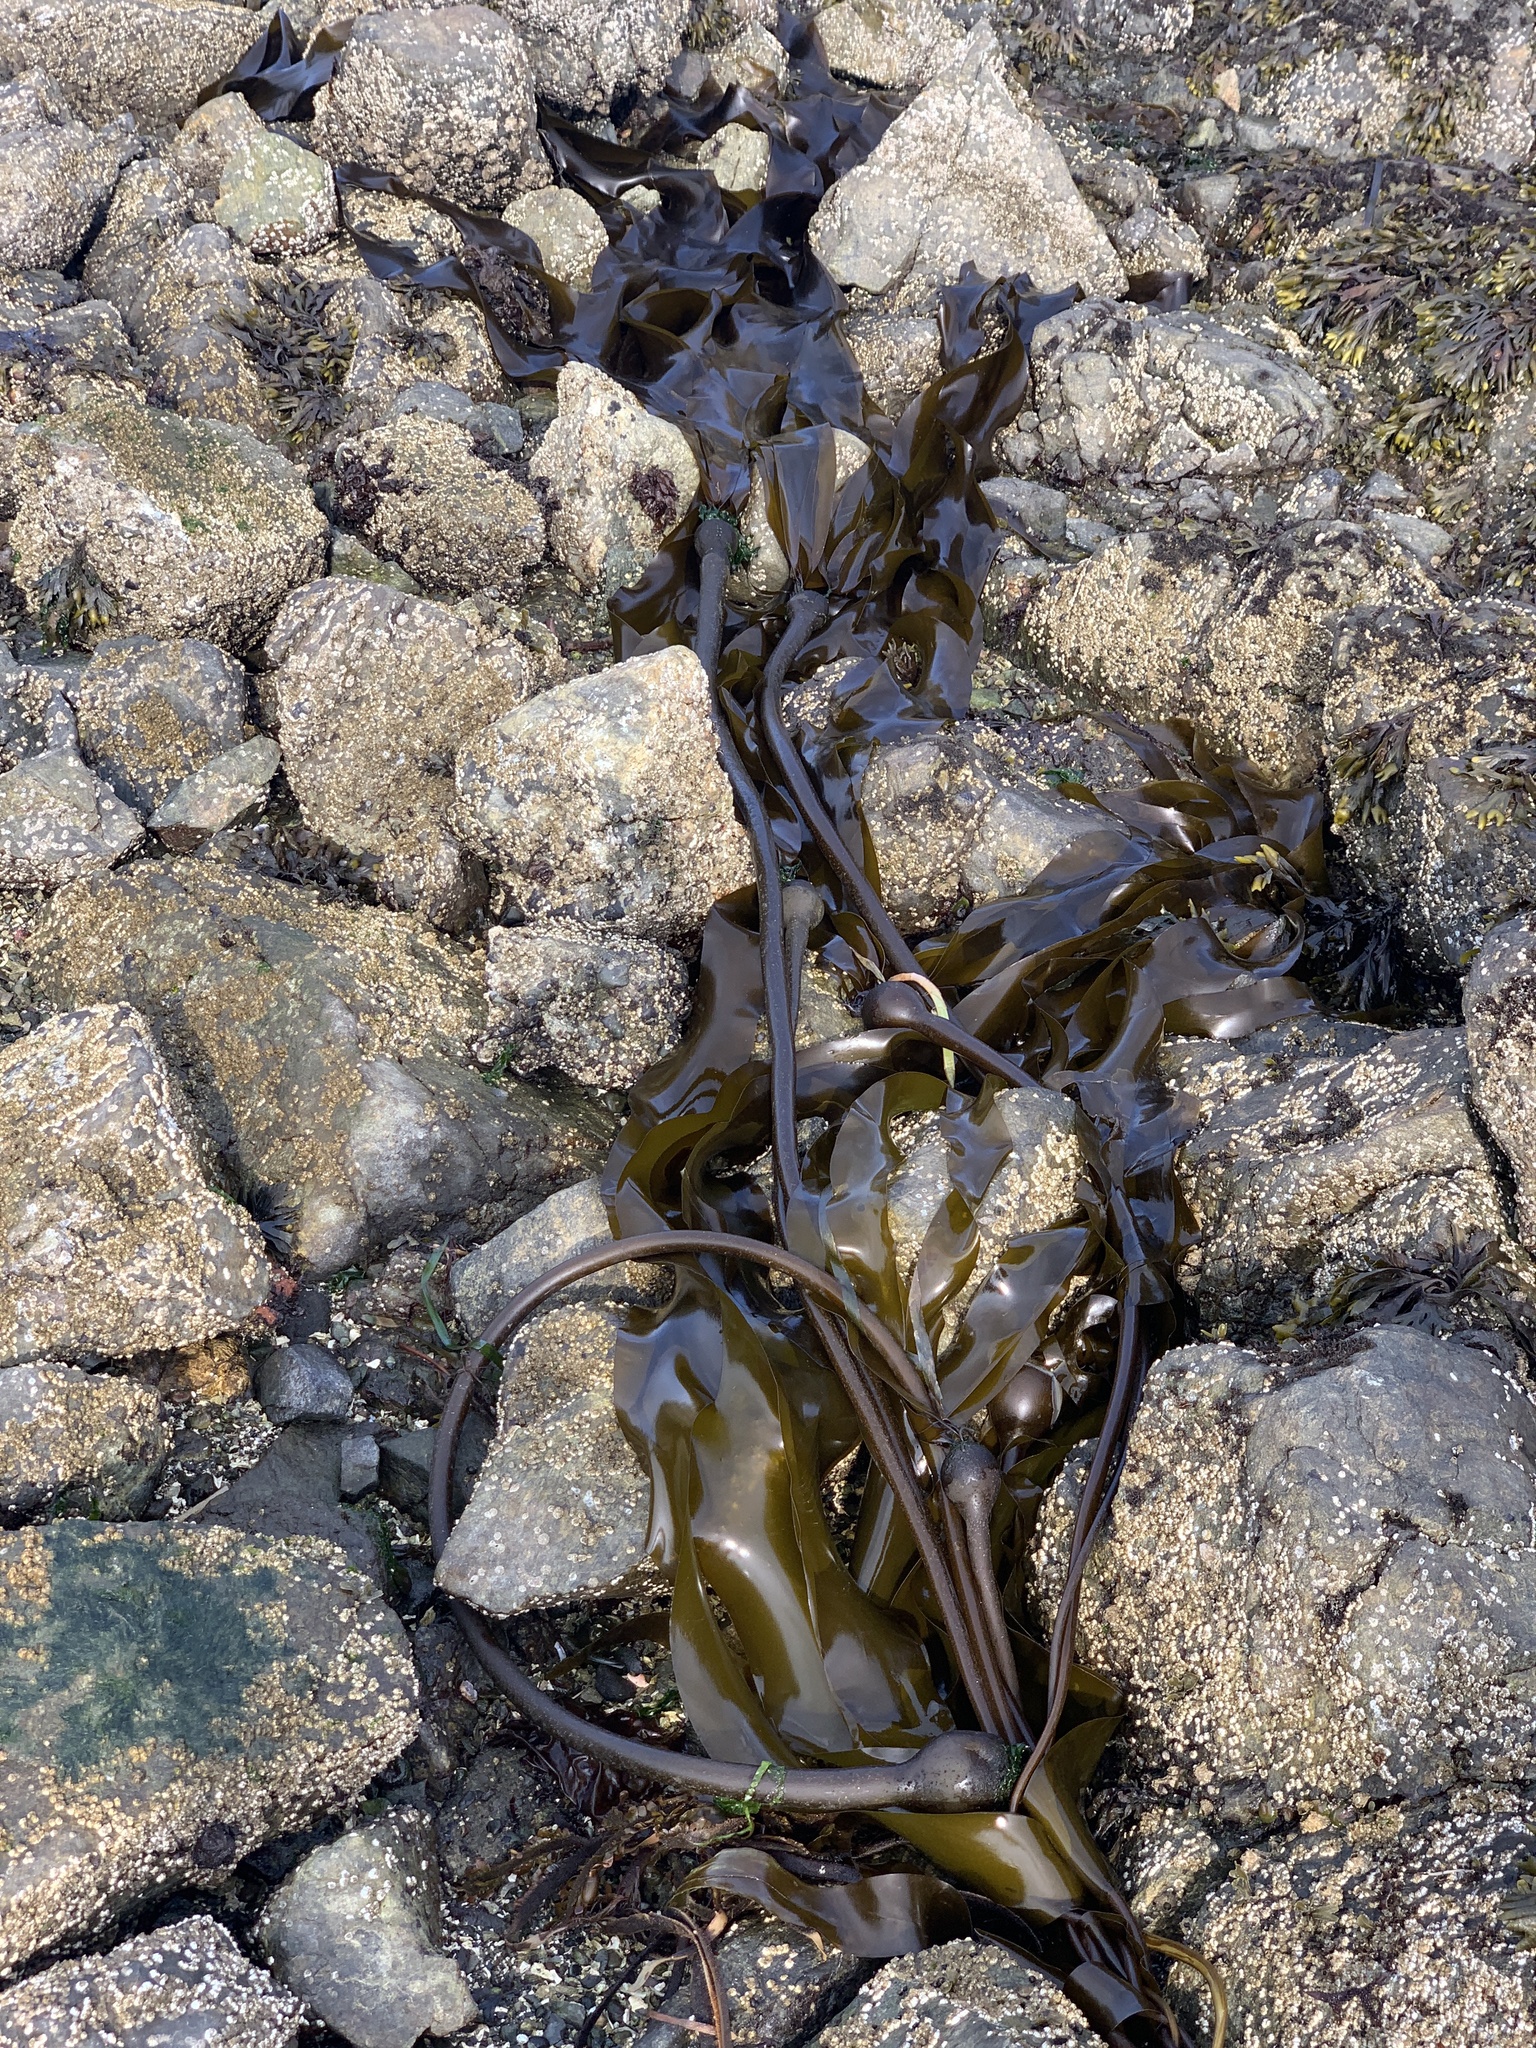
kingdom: Chromista
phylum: Ochrophyta
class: Phaeophyceae
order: Laminariales
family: Laminariaceae
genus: Nereocystis
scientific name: Nereocystis luetkeana
